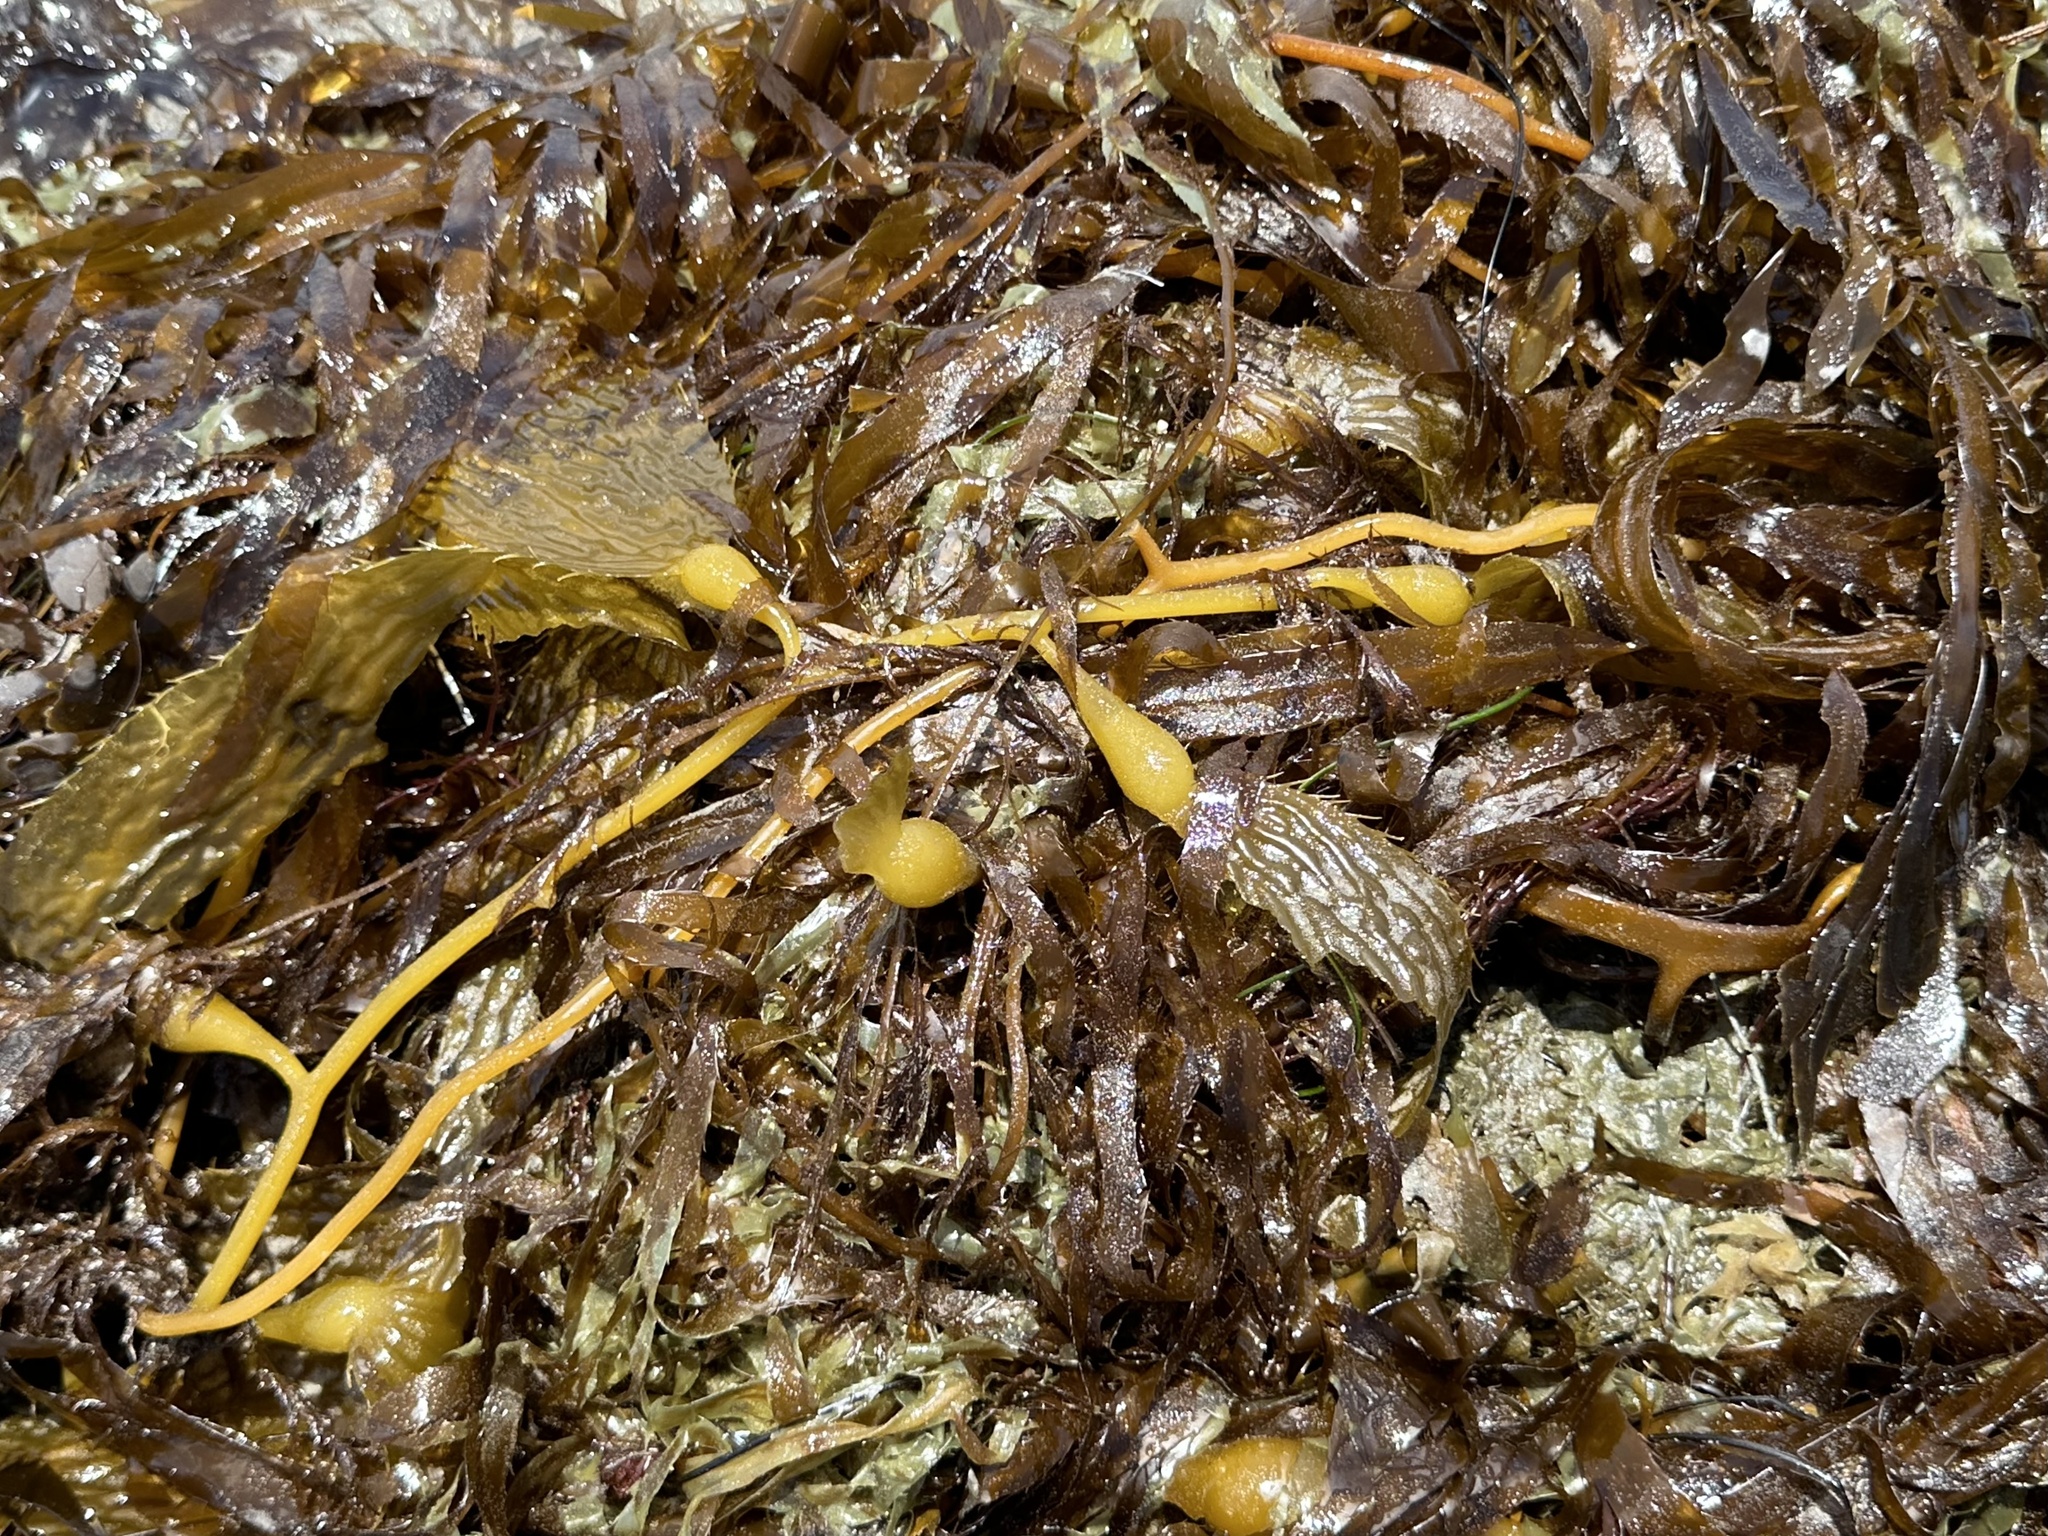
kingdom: Chromista
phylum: Ochrophyta
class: Phaeophyceae
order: Laminariales
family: Laminariaceae
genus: Macrocystis
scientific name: Macrocystis pyrifera
